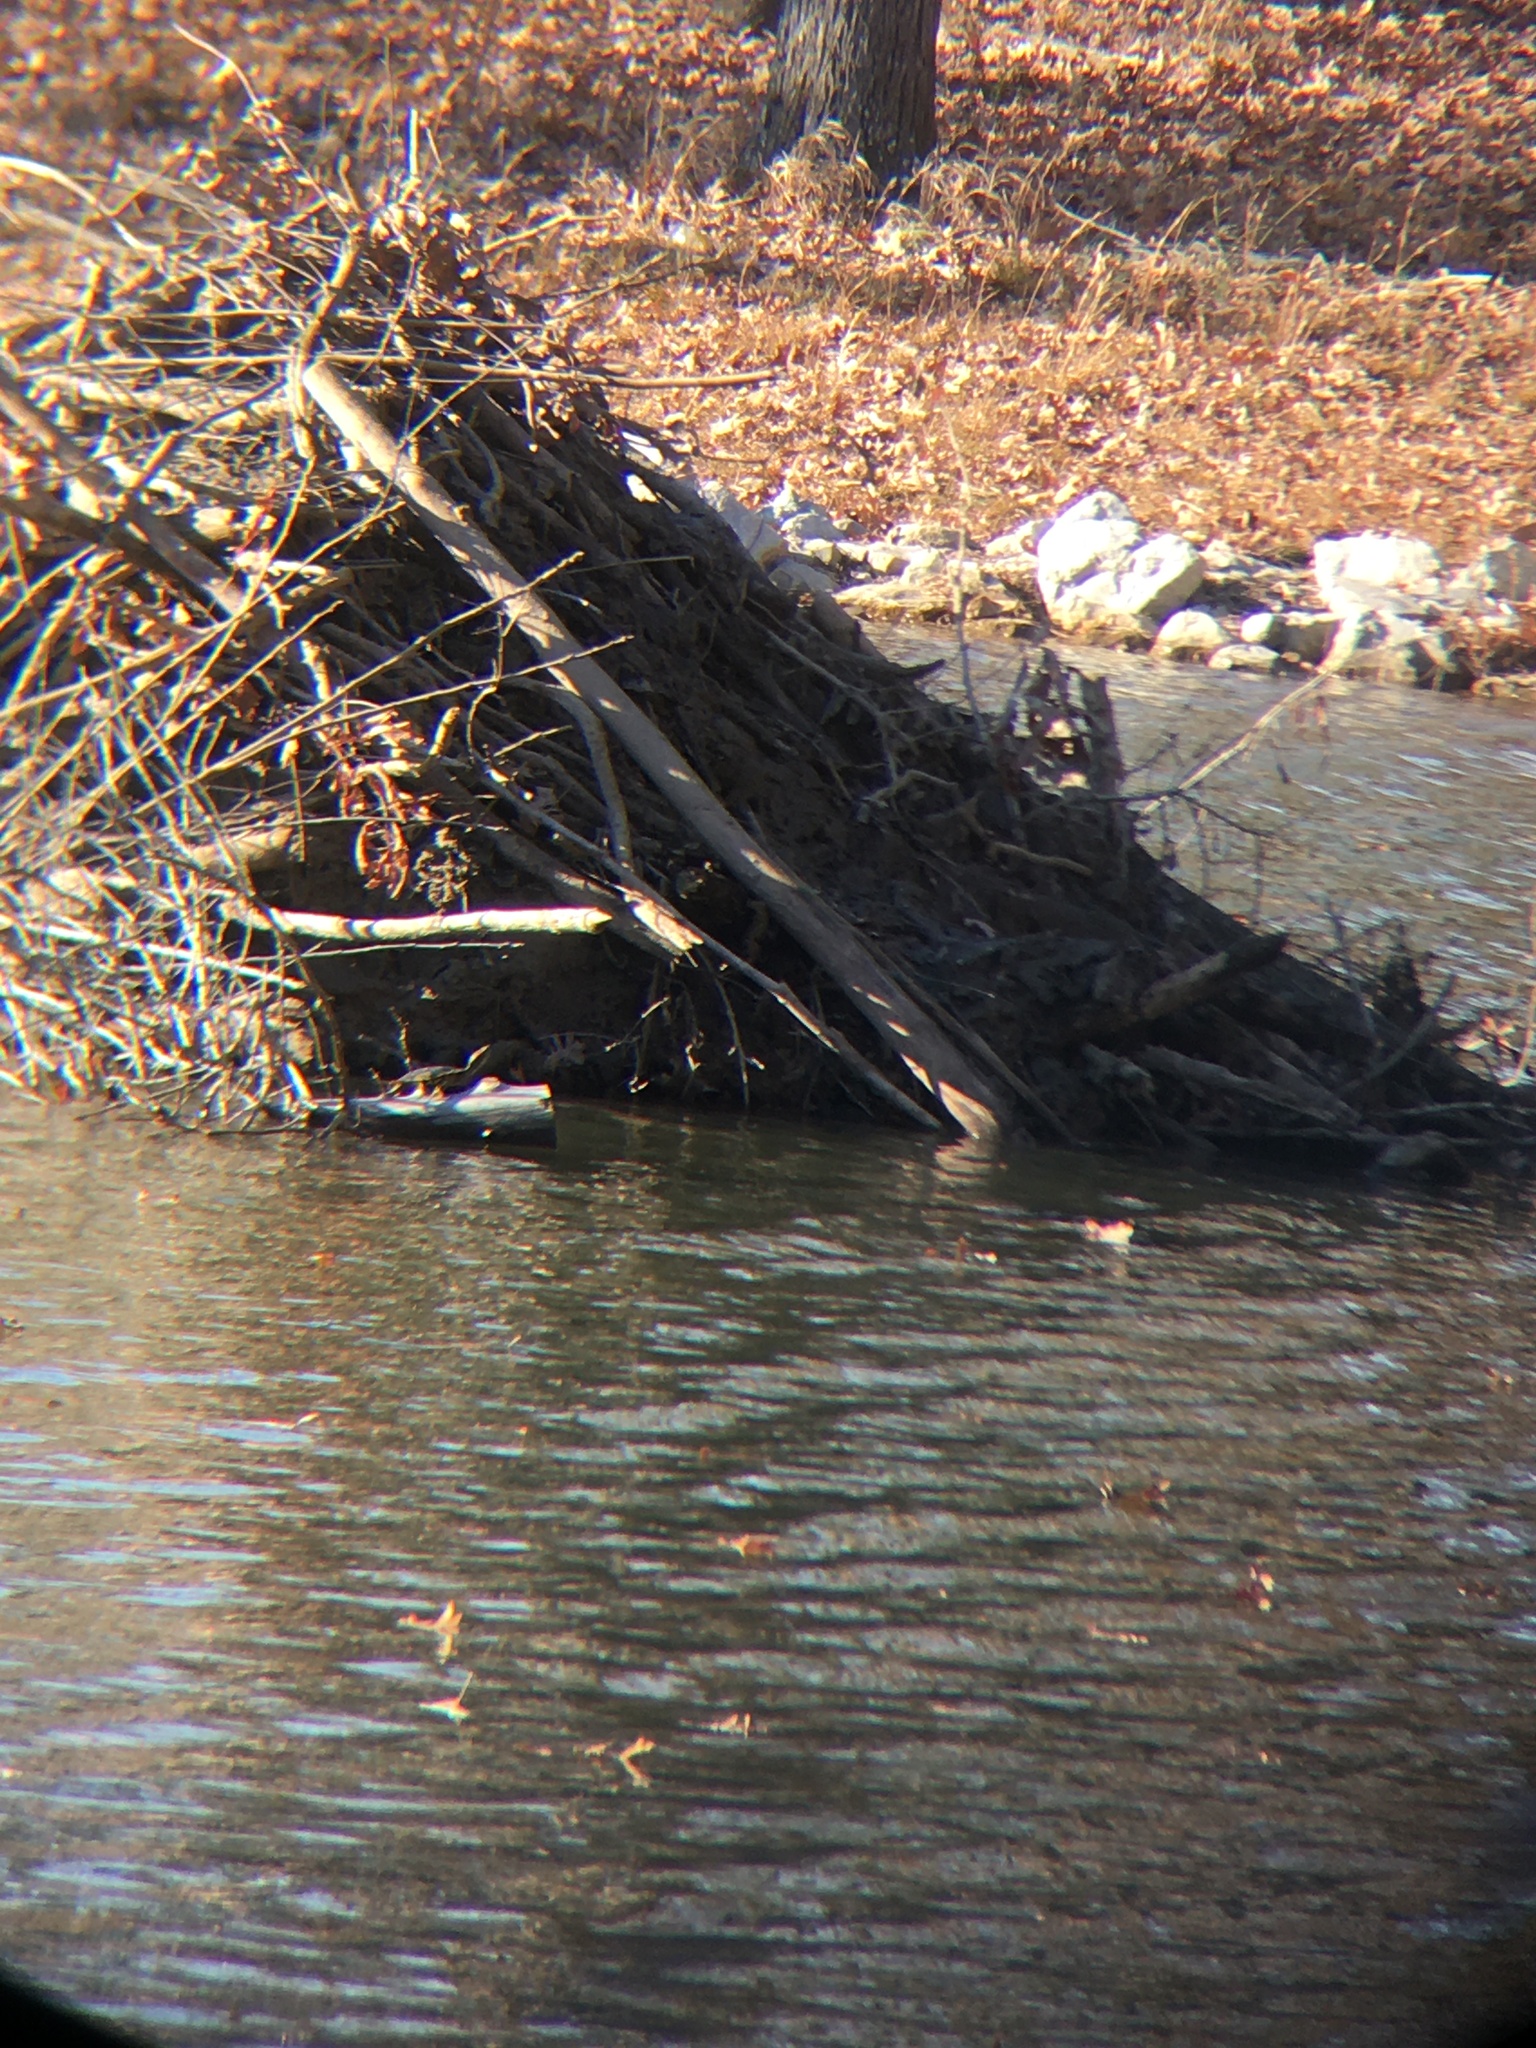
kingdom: Animalia
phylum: Chordata
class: Mammalia
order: Rodentia
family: Castoridae
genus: Castor
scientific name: Castor canadensis
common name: American beaver
